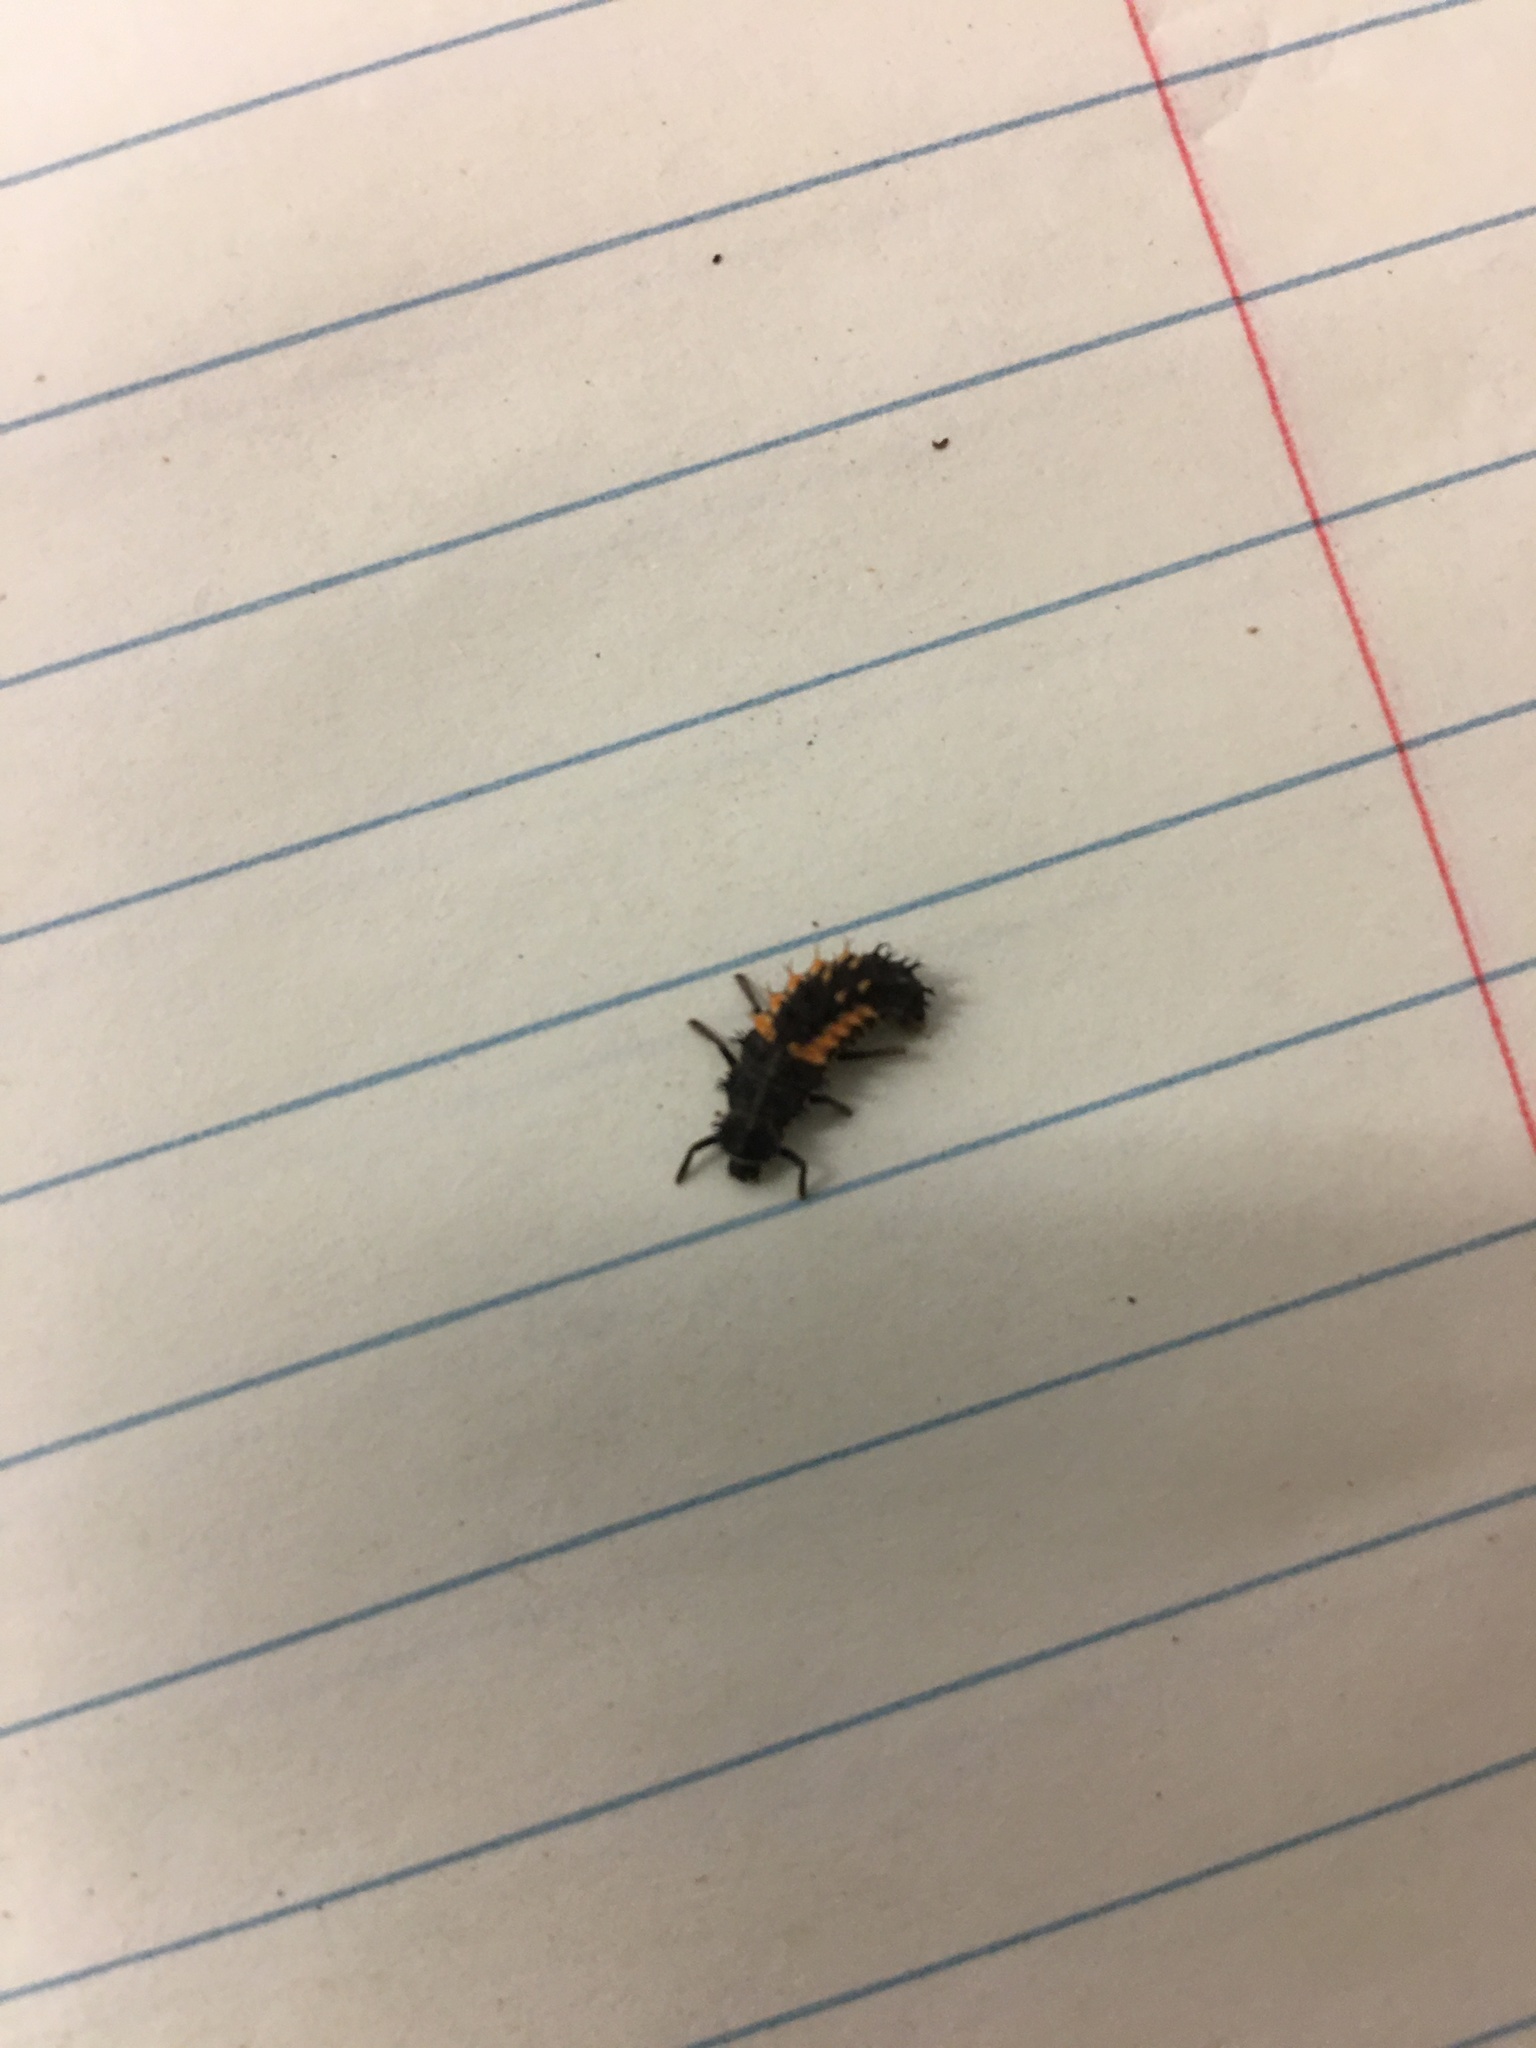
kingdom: Animalia
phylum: Arthropoda
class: Insecta
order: Coleoptera
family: Coccinellidae
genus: Harmonia
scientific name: Harmonia axyridis
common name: Harlequin ladybird
